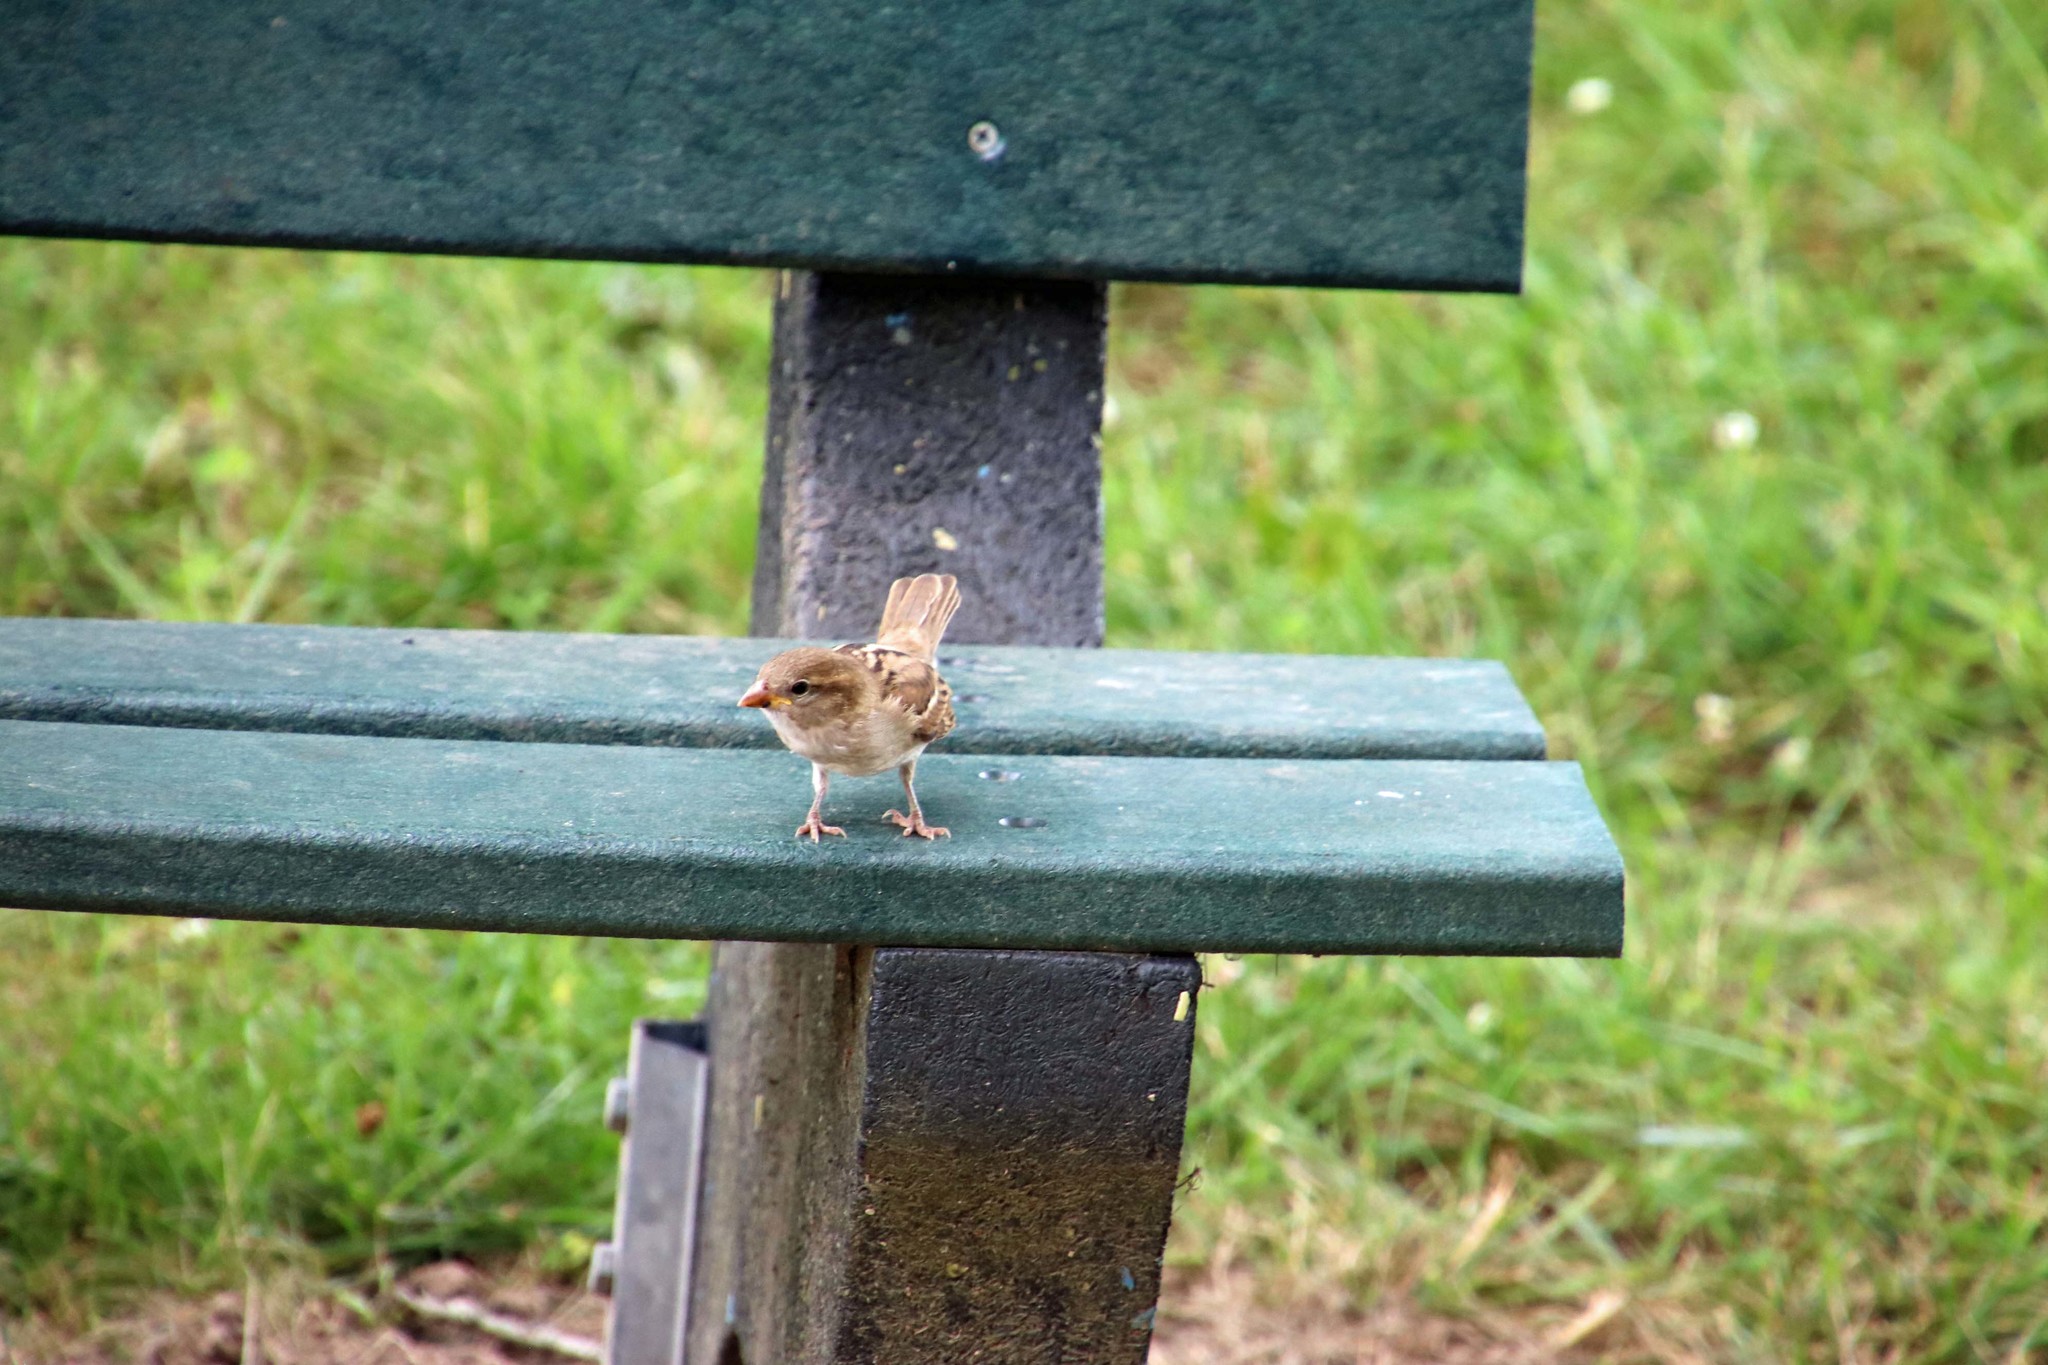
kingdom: Animalia
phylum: Chordata
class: Aves
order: Passeriformes
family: Passeridae
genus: Passer
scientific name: Passer domesticus
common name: House sparrow
